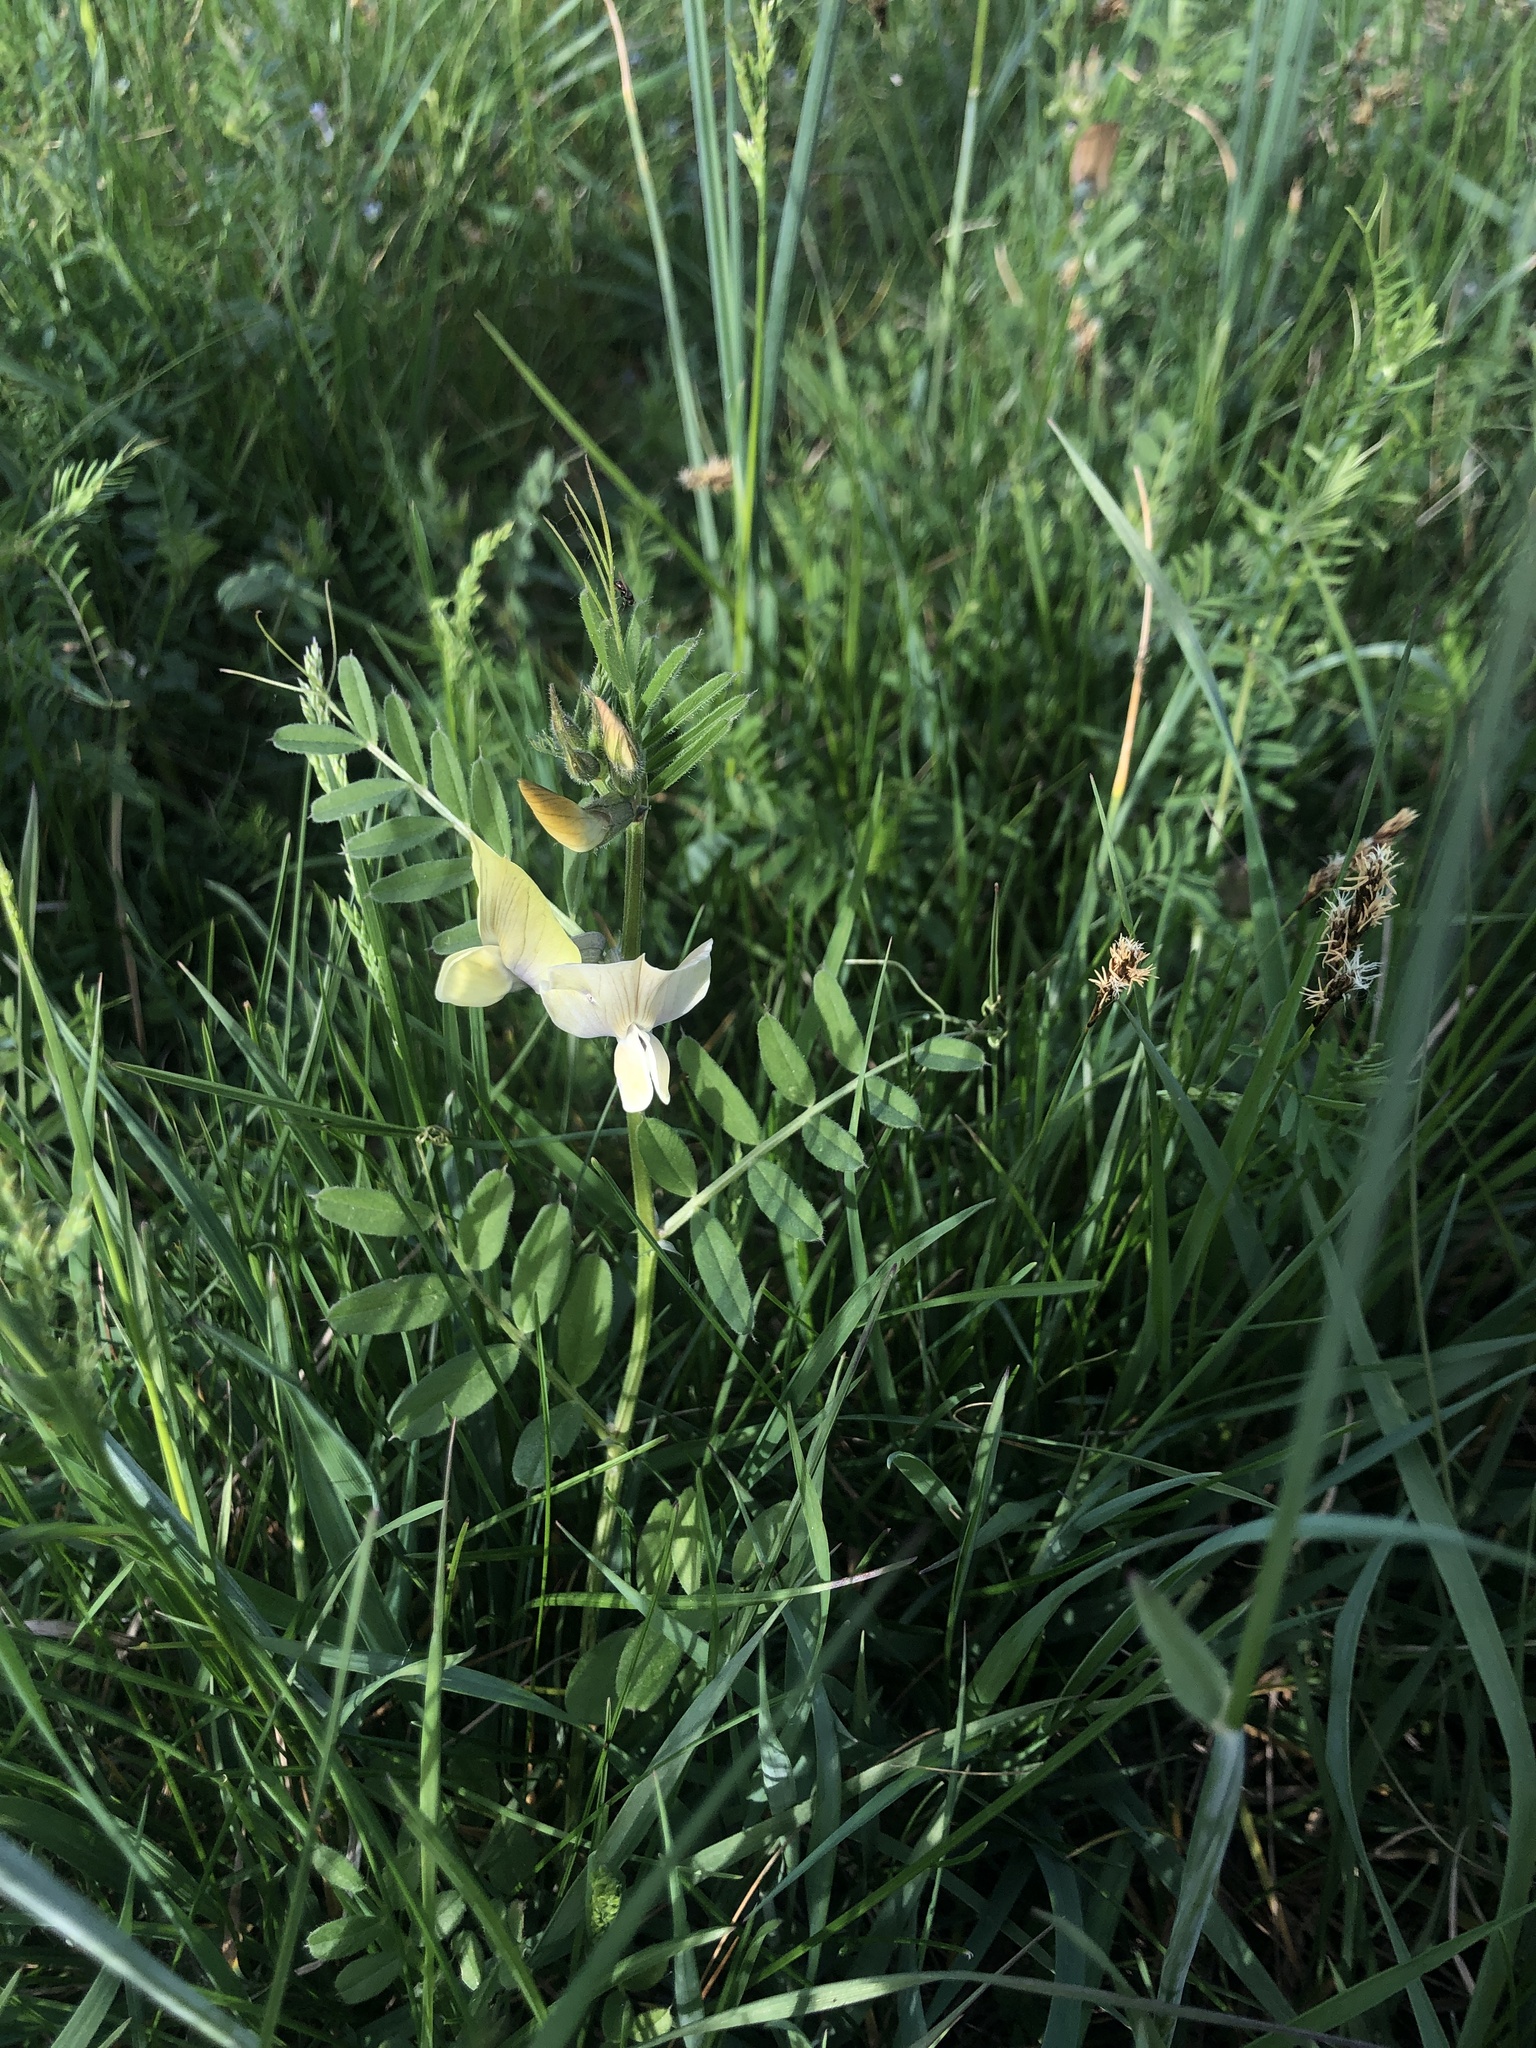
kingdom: Plantae
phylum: Tracheophyta
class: Magnoliopsida
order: Fabales
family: Fabaceae
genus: Vicia
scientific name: Vicia grandiflora
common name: Large yellow vetch
